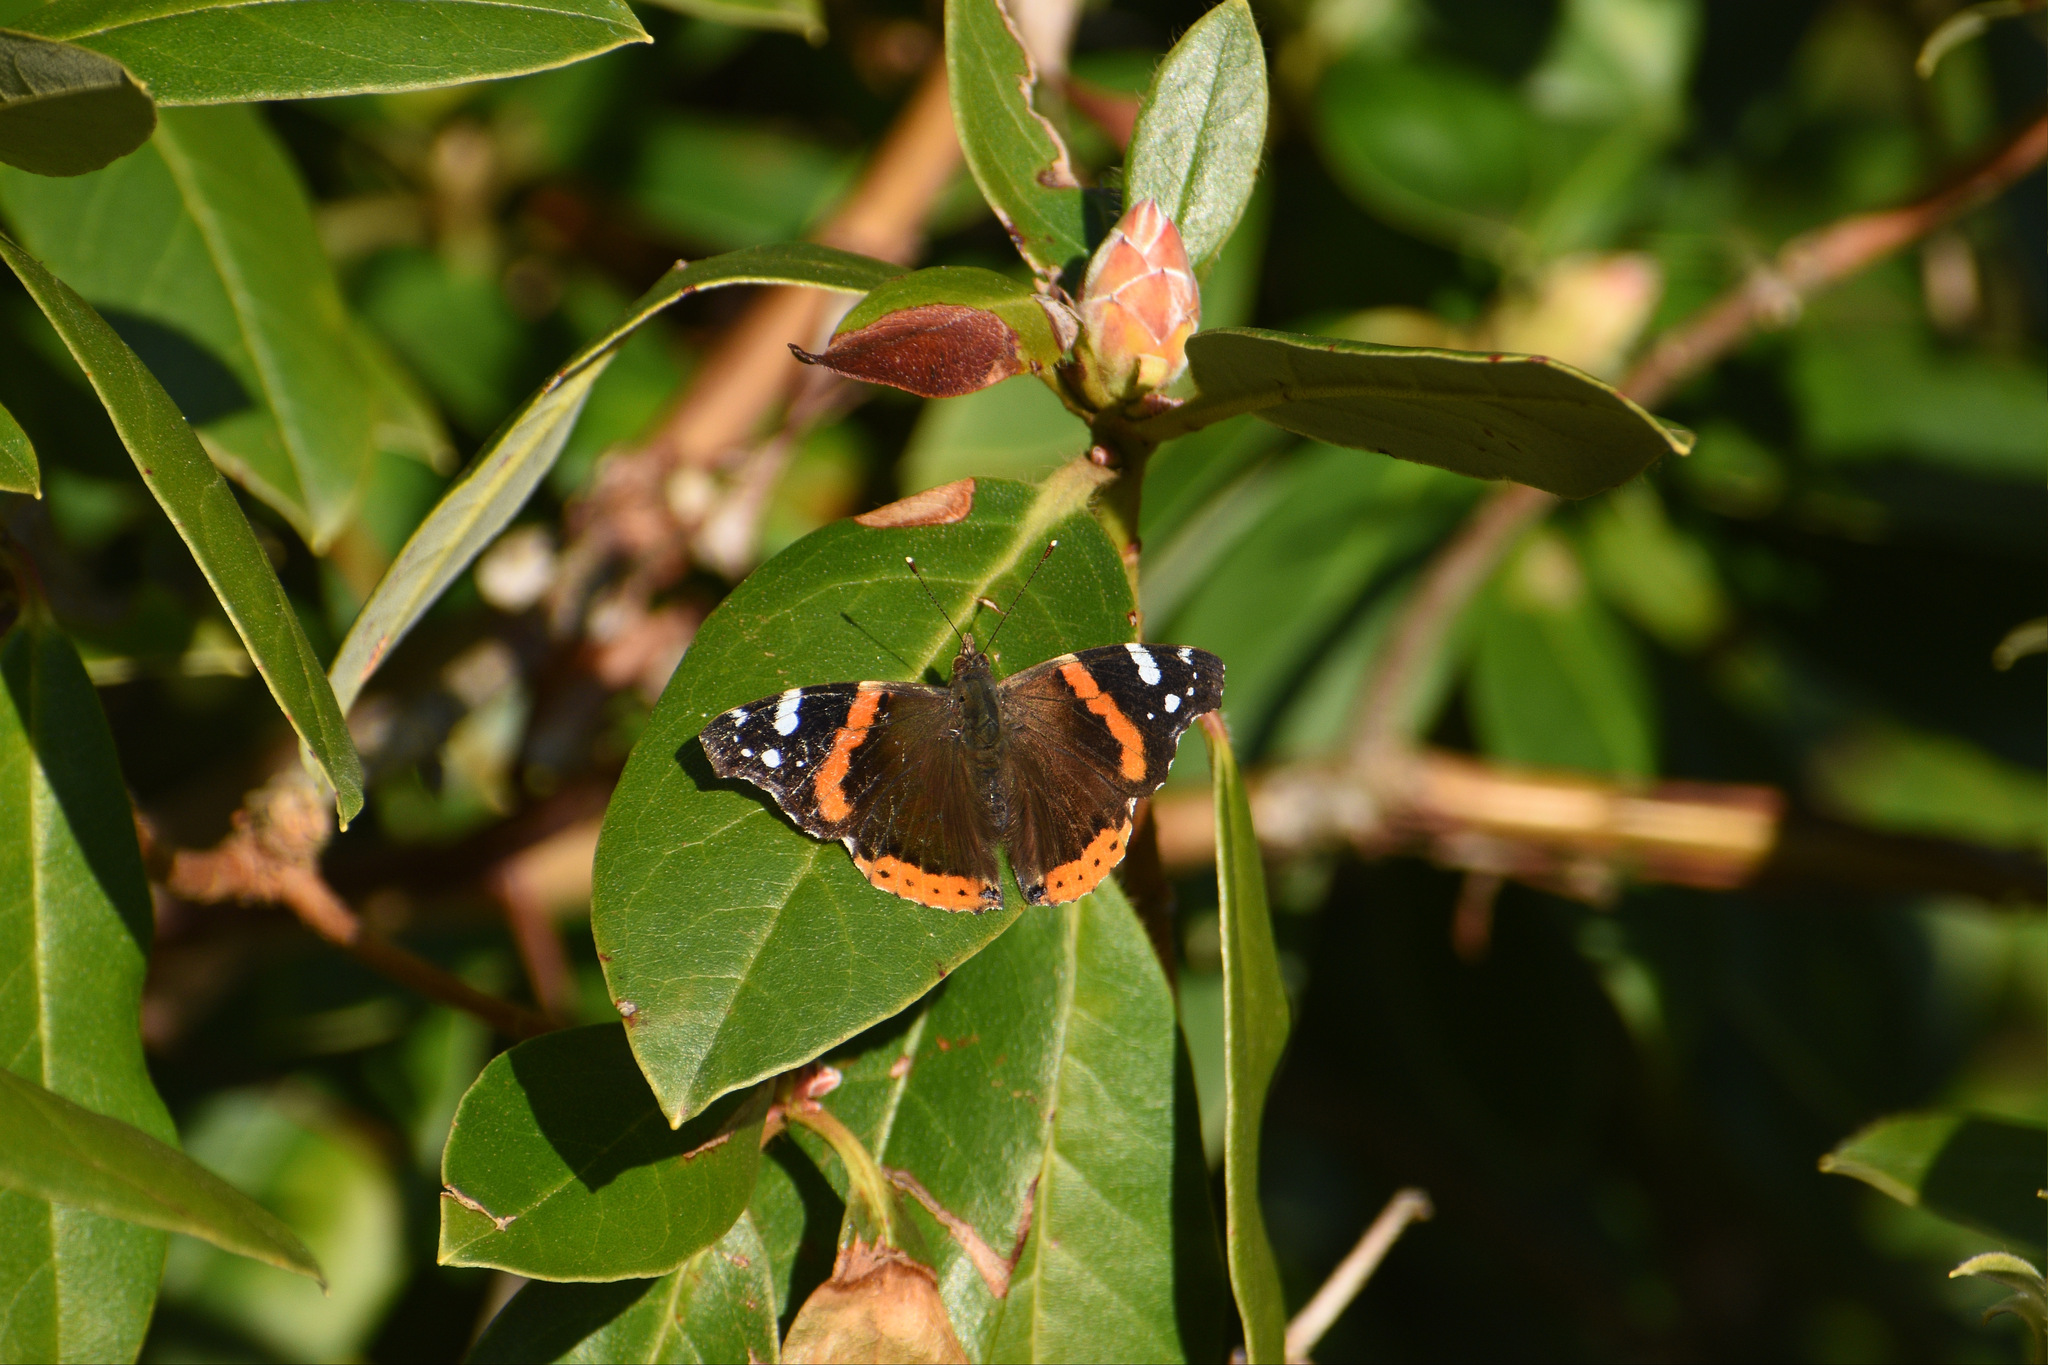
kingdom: Animalia
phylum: Arthropoda
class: Insecta
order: Lepidoptera
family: Nymphalidae
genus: Vanessa
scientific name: Vanessa atalanta
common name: Red admiral
